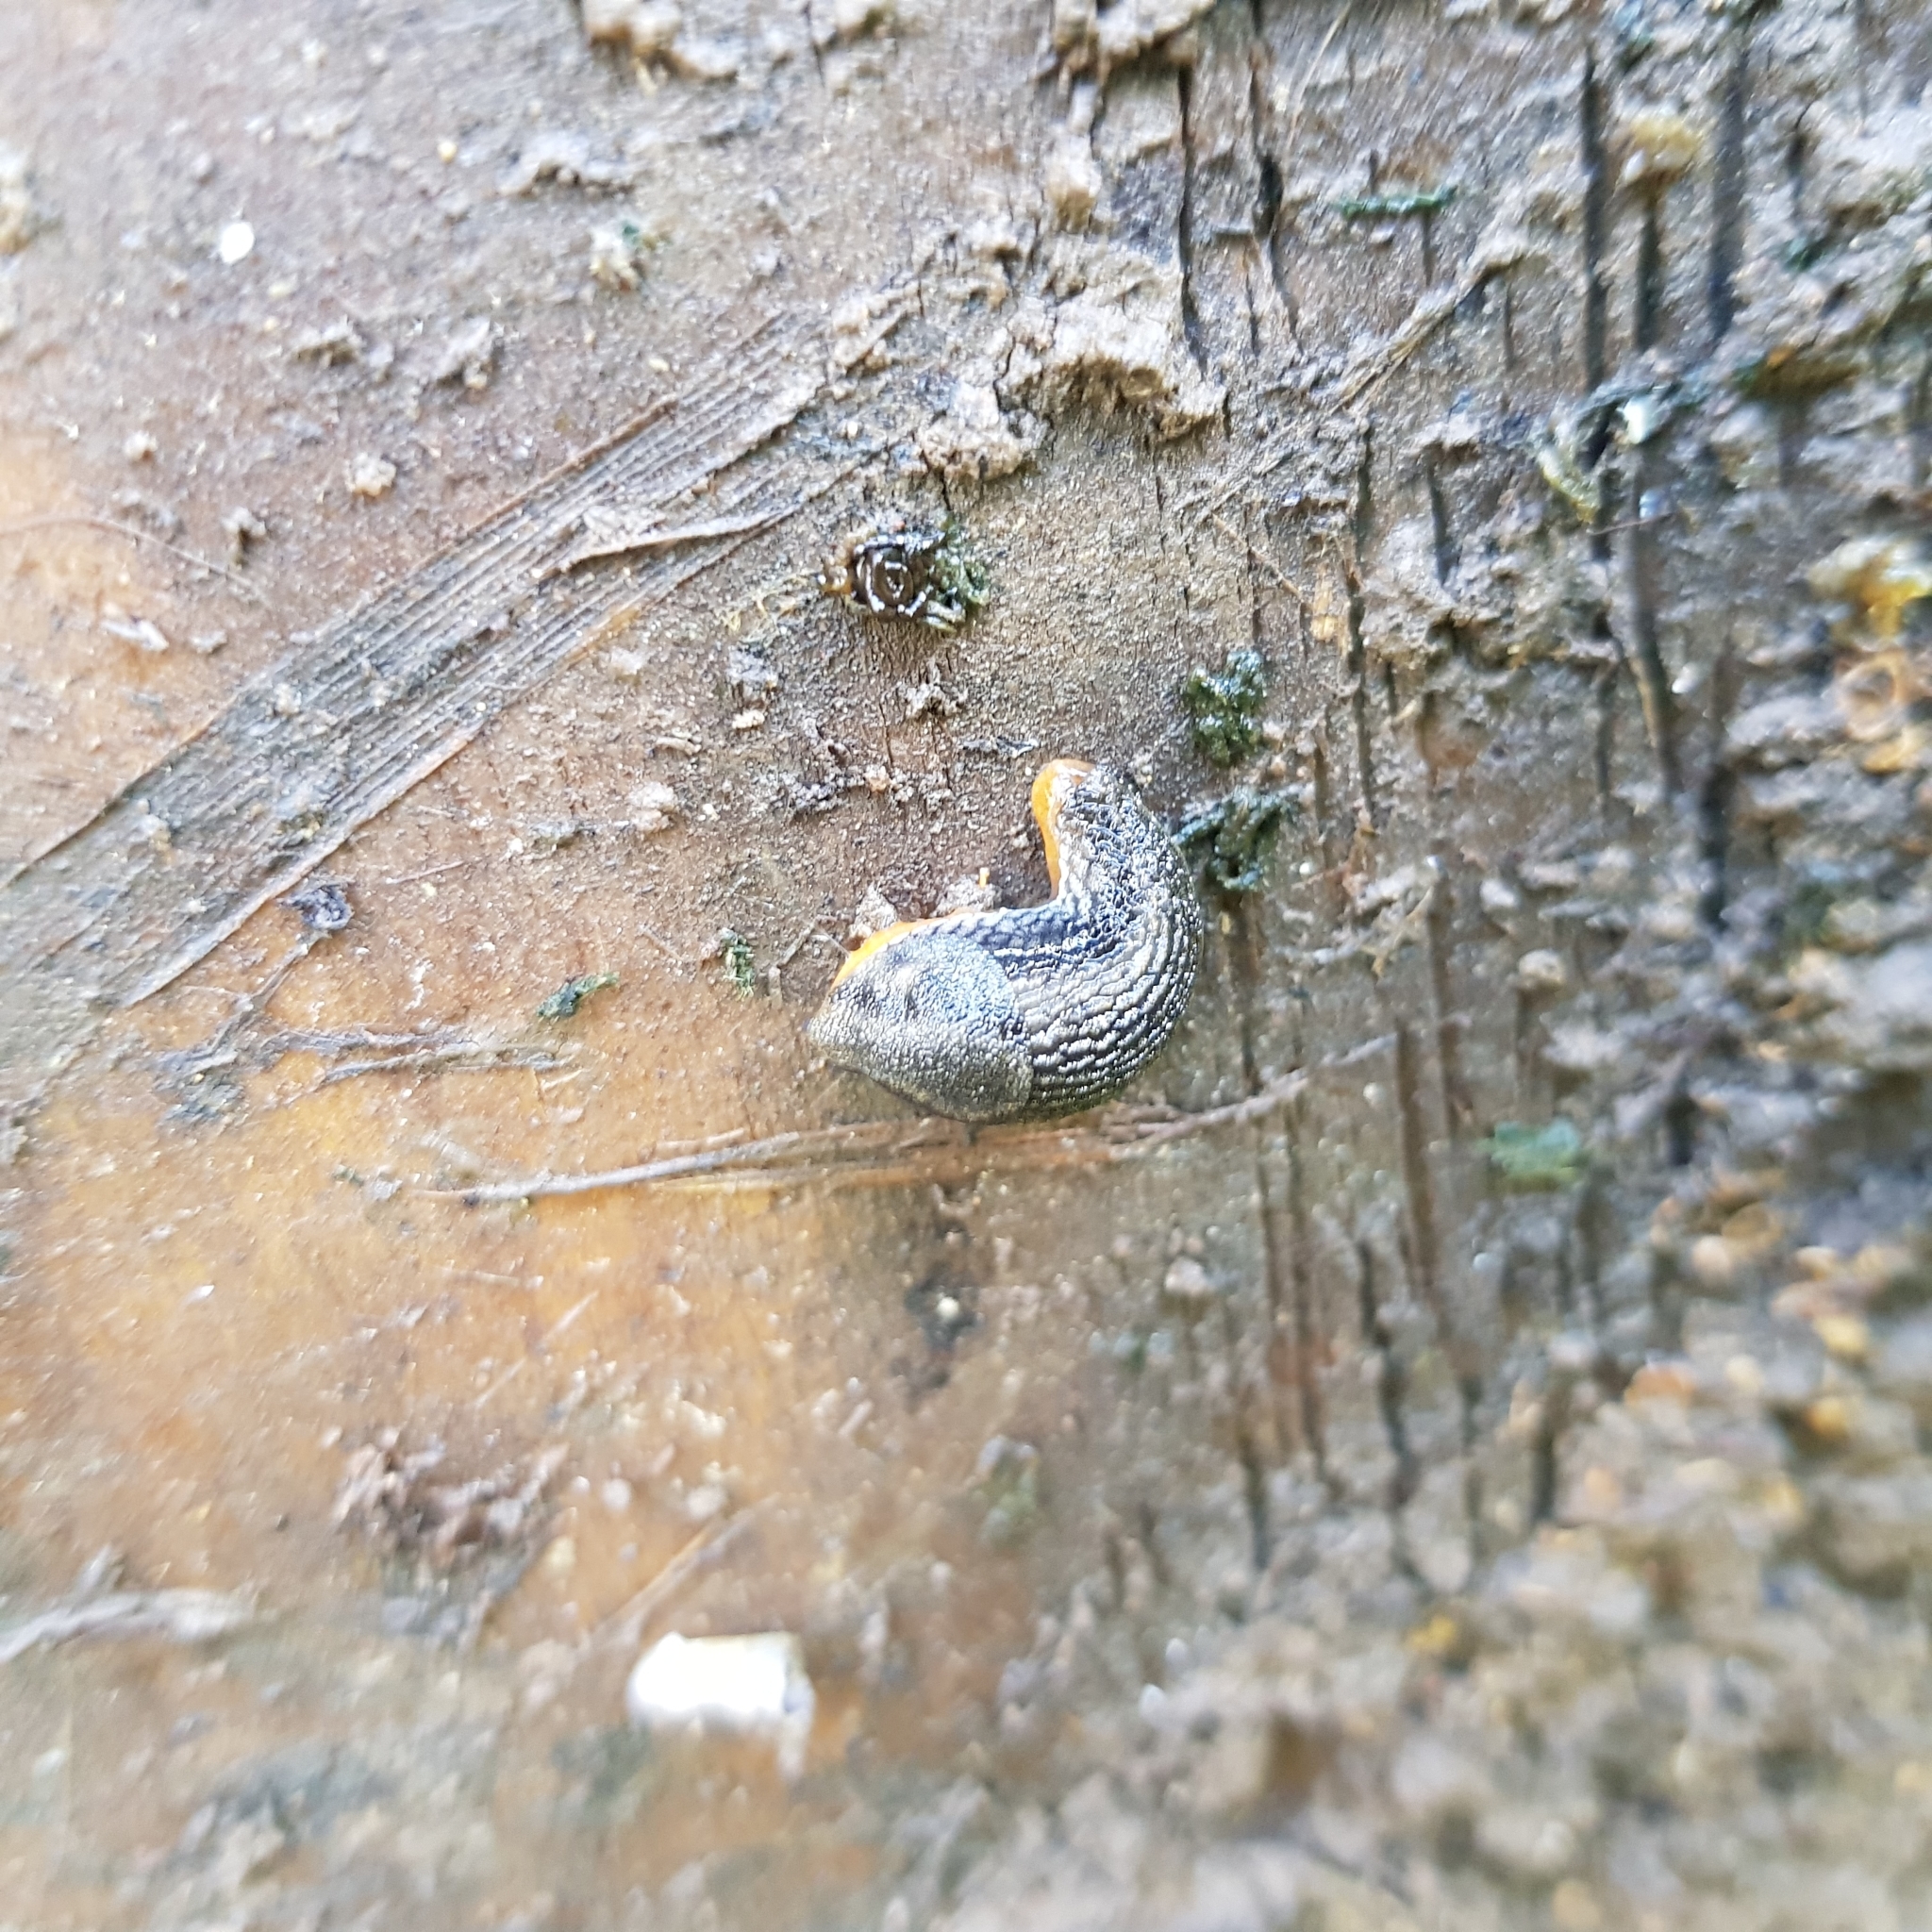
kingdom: Animalia
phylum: Mollusca
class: Gastropoda
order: Stylommatophora
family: Arionidae
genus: Kobeltia
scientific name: Kobeltia
